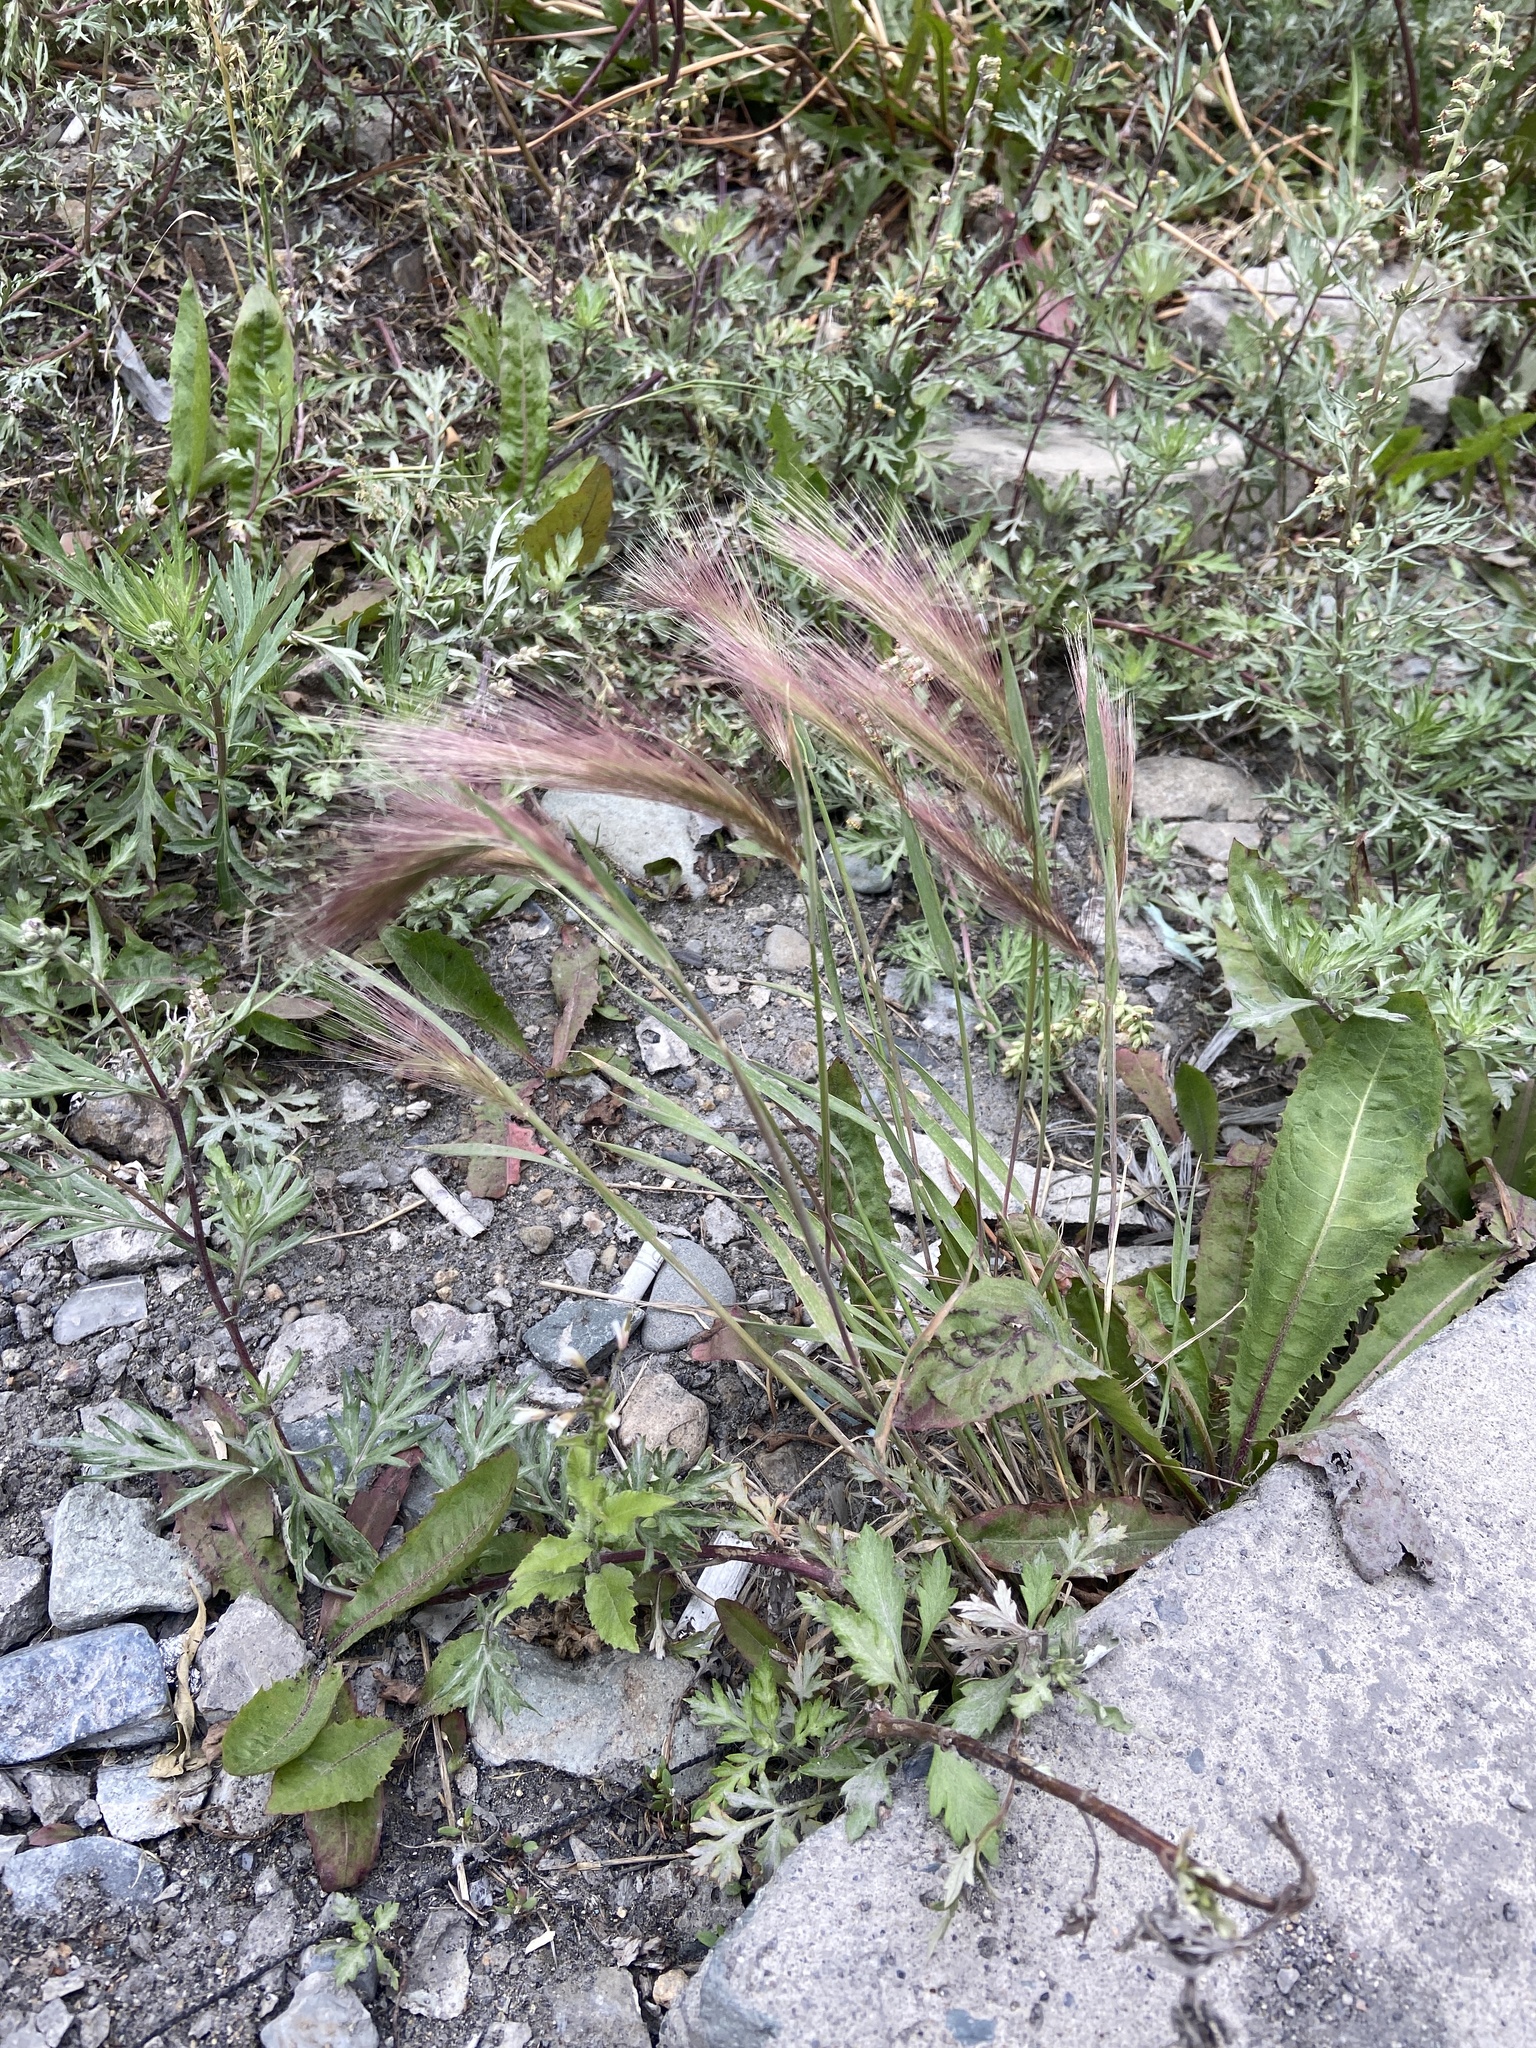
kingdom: Plantae
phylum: Tracheophyta
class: Liliopsida
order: Poales
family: Poaceae
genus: Hordeum
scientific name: Hordeum jubatum
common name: Foxtail barley
